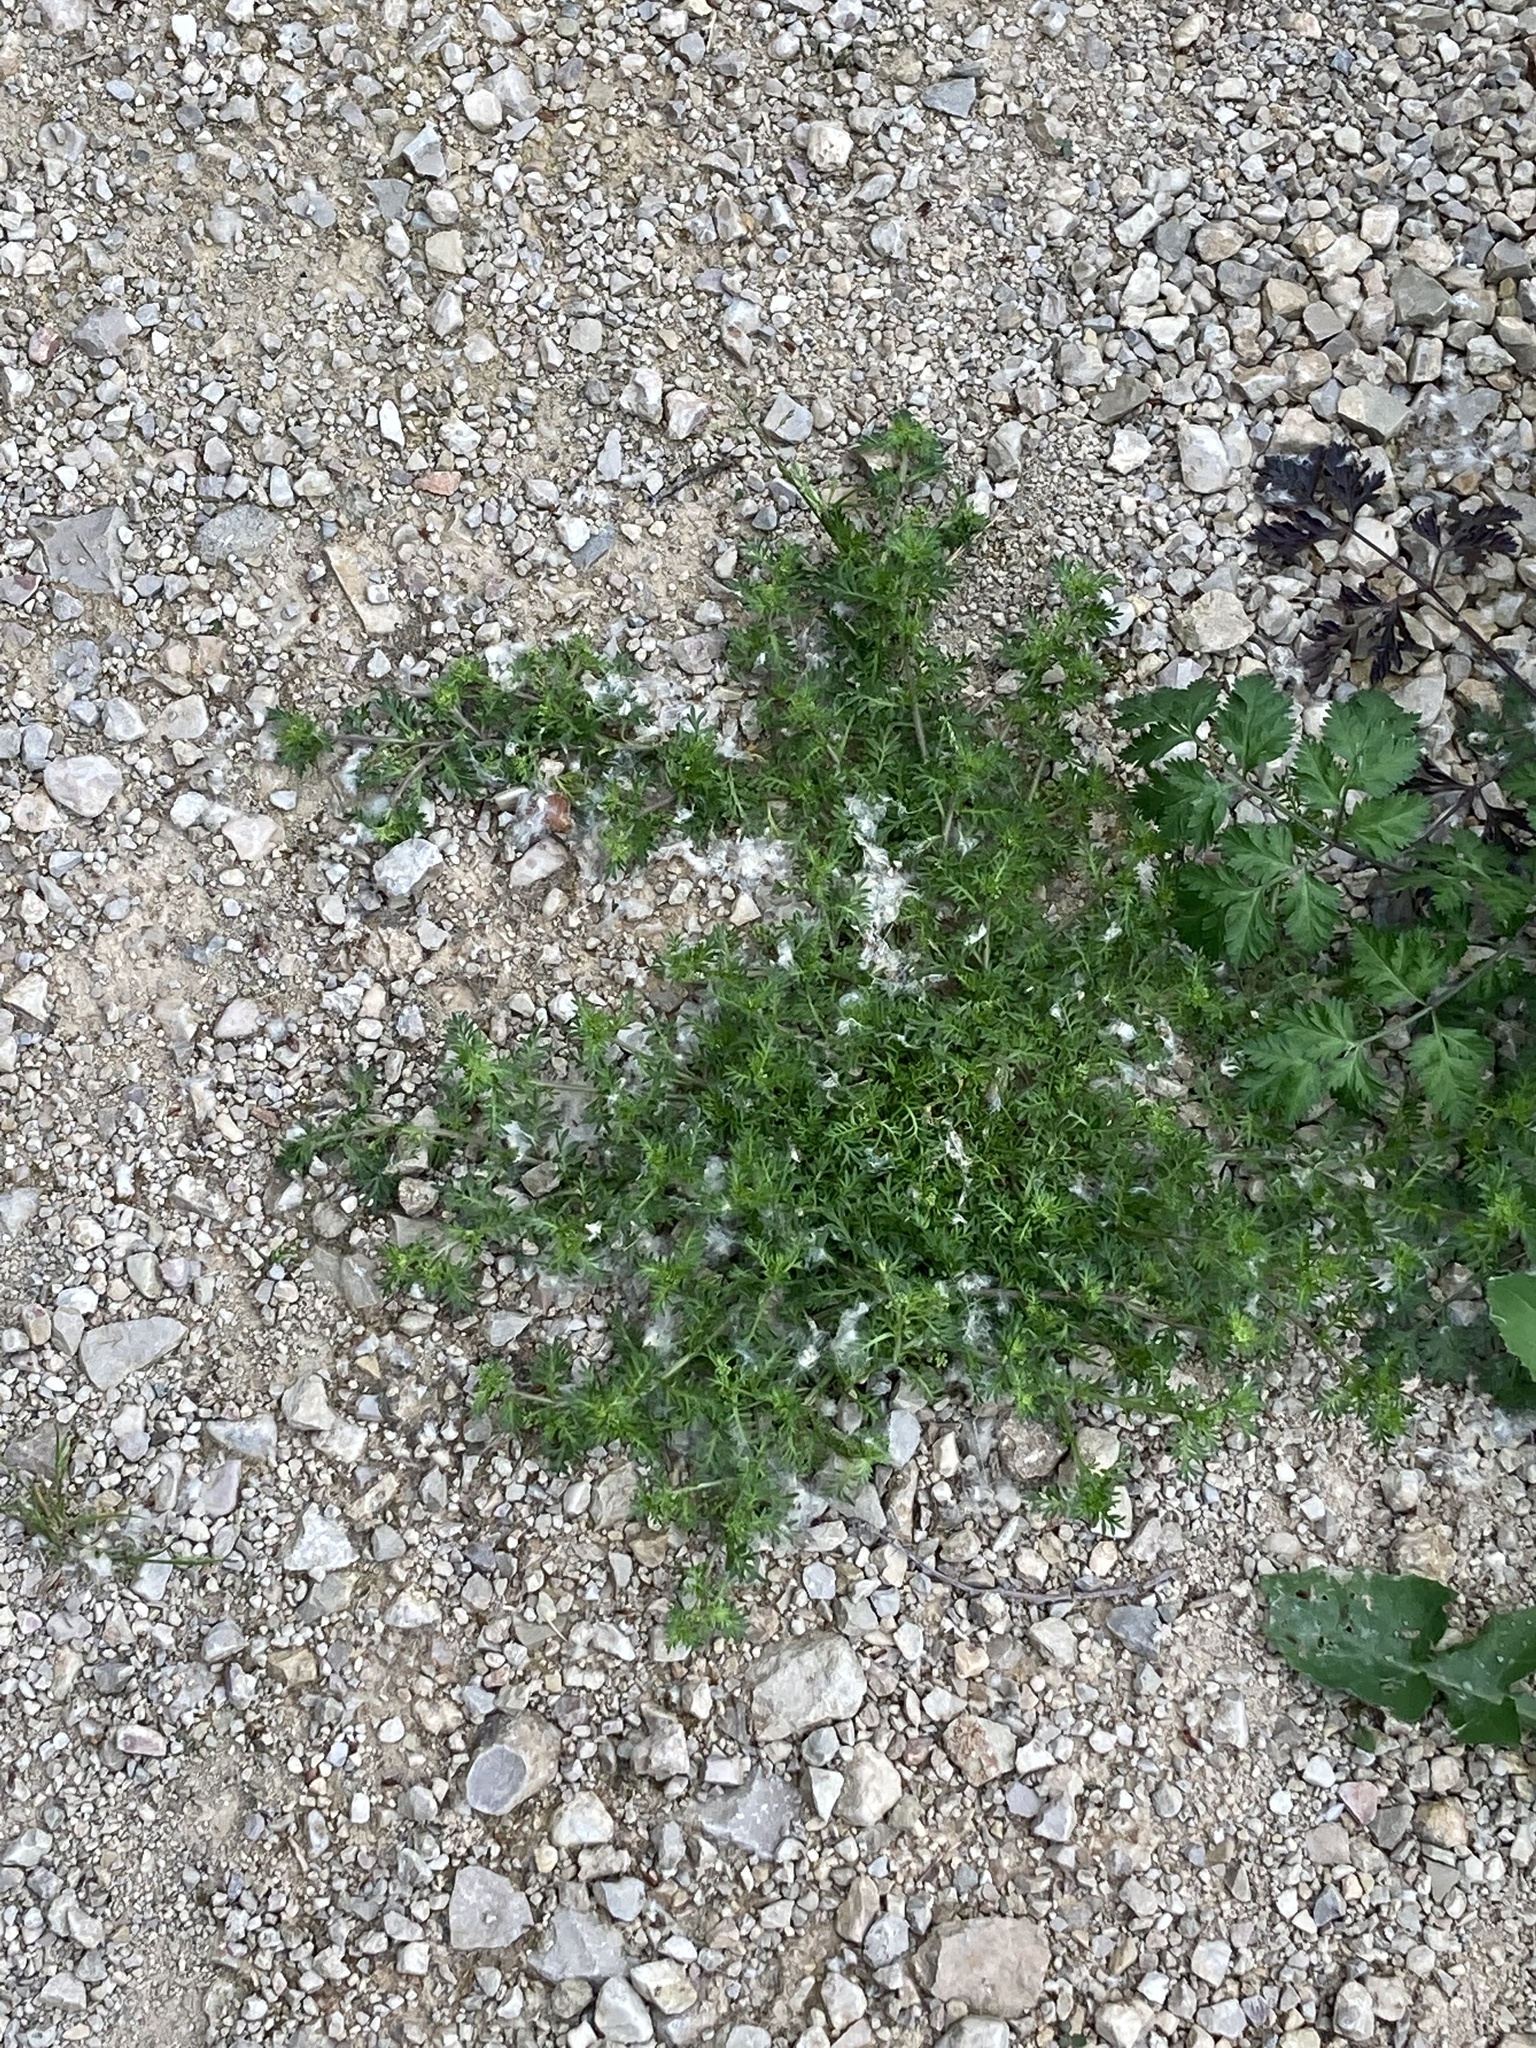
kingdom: Plantae
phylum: Tracheophyta
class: Magnoliopsida
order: Brassicales
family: Brassicaceae
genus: Lepidium
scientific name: Lepidium didymum
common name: Lesser swinecress
